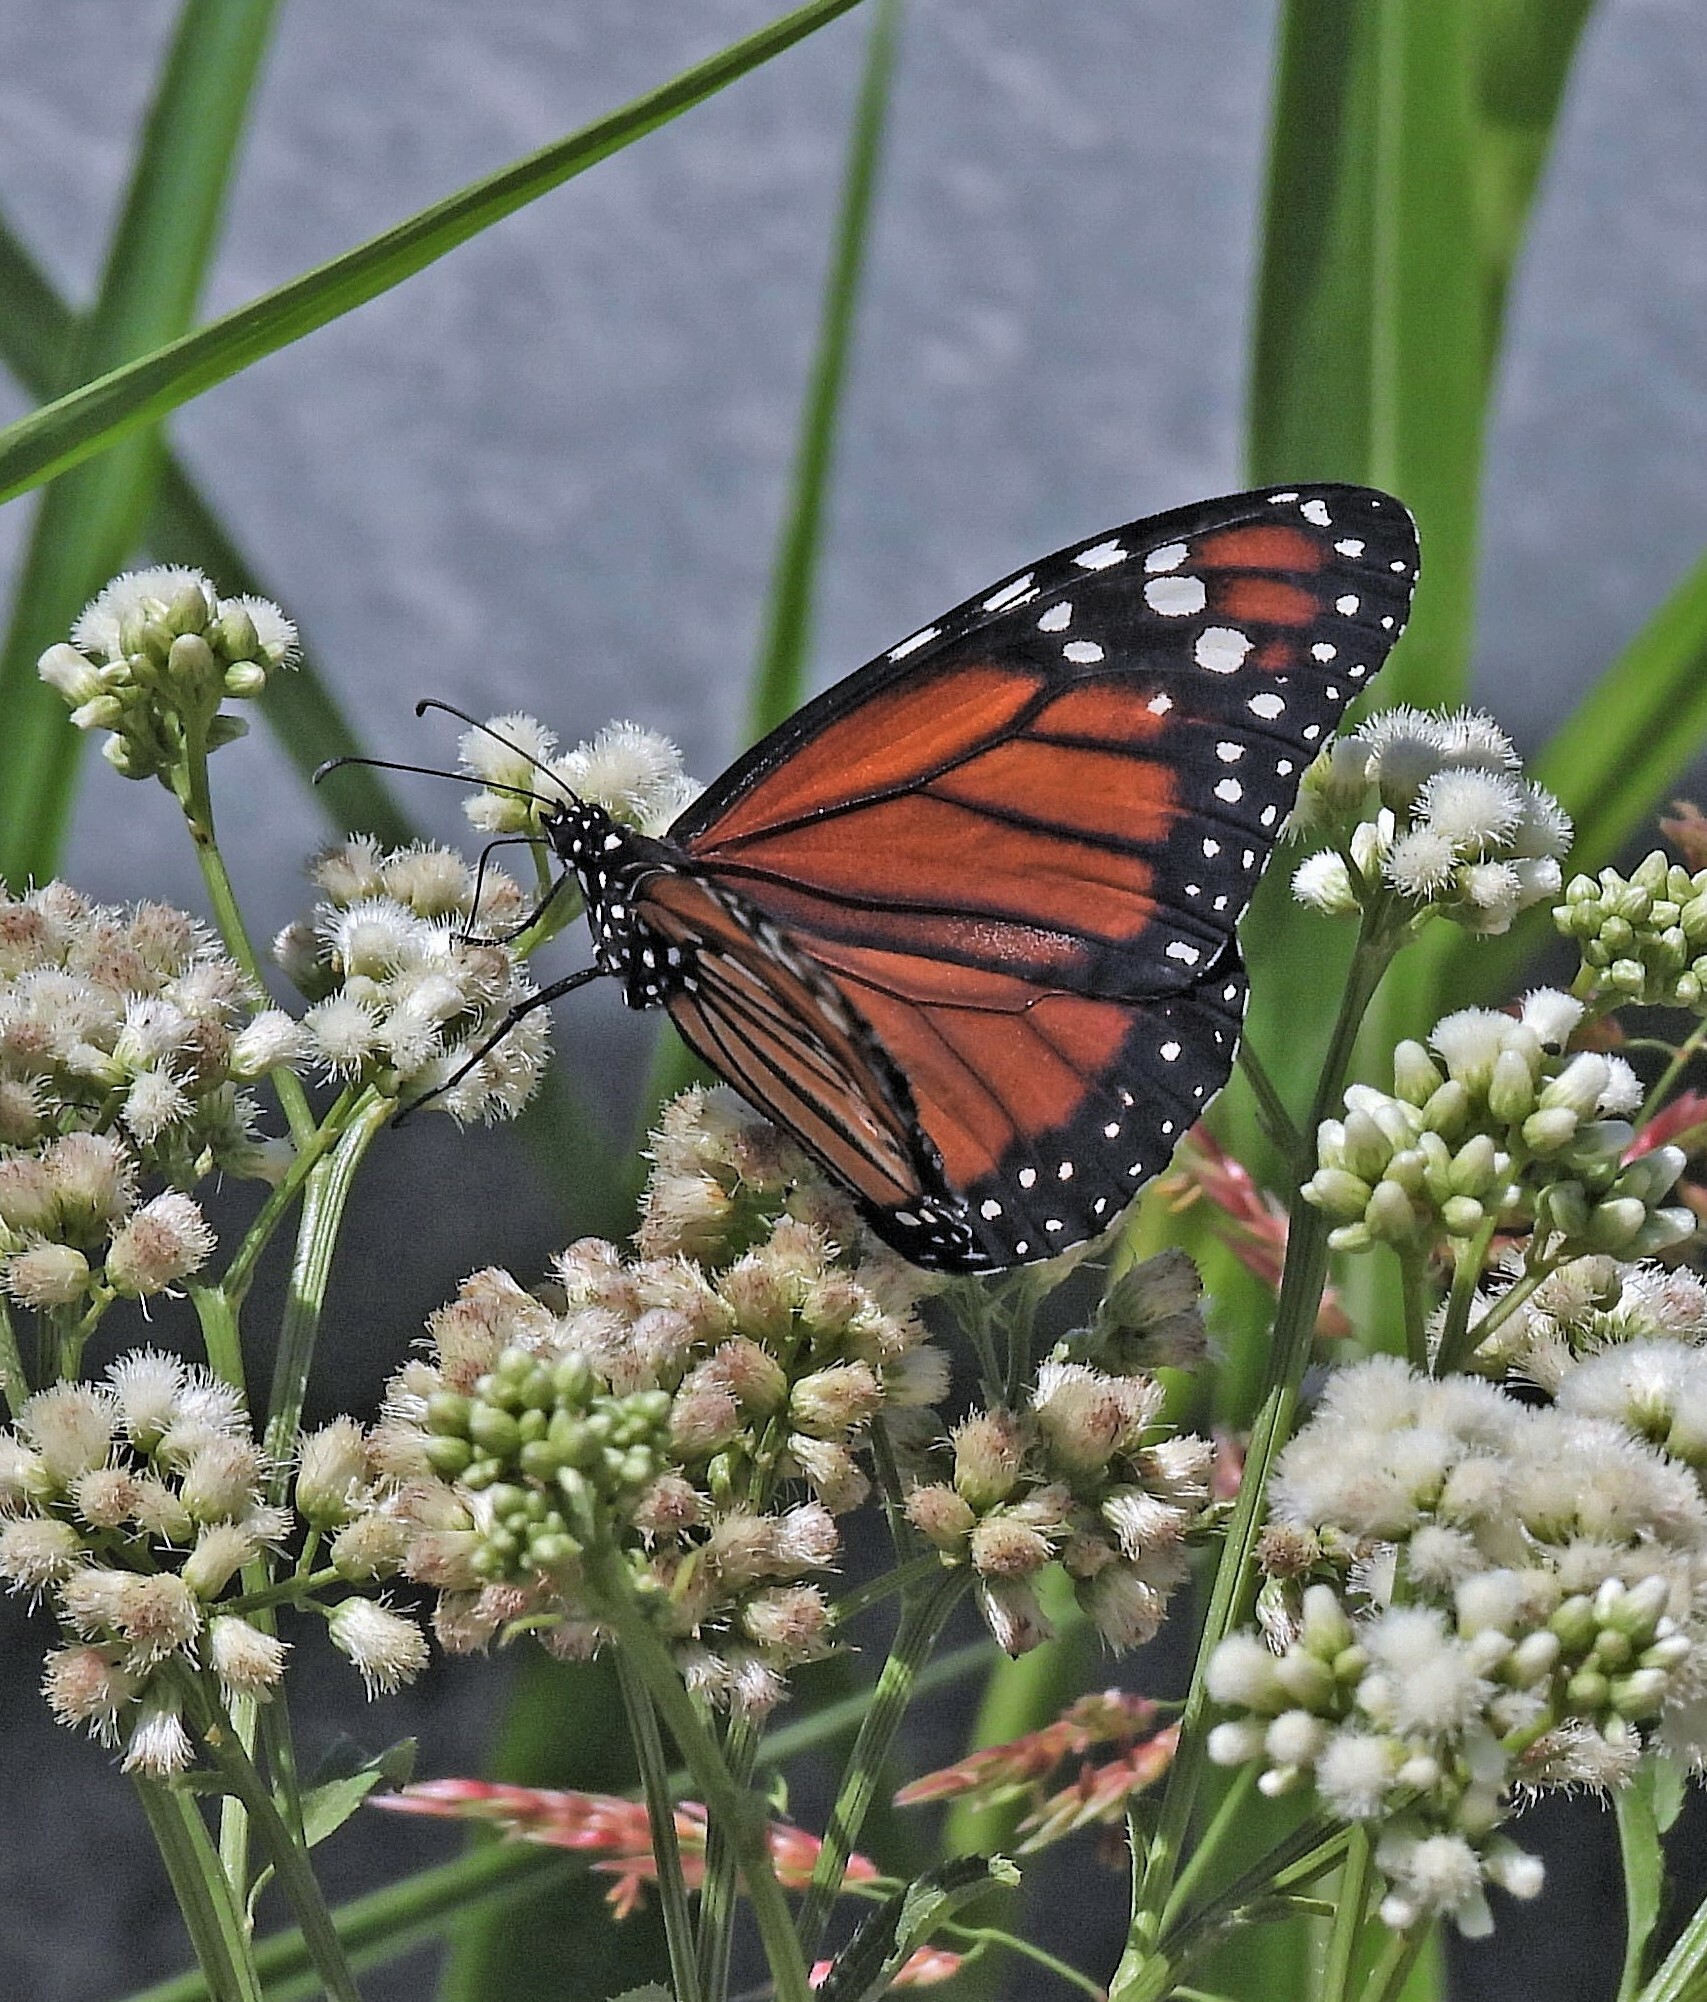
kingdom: Animalia
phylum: Arthropoda
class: Insecta
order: Lepidoptera
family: Nymphalidae
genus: Danaus
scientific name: Danaus erippus
